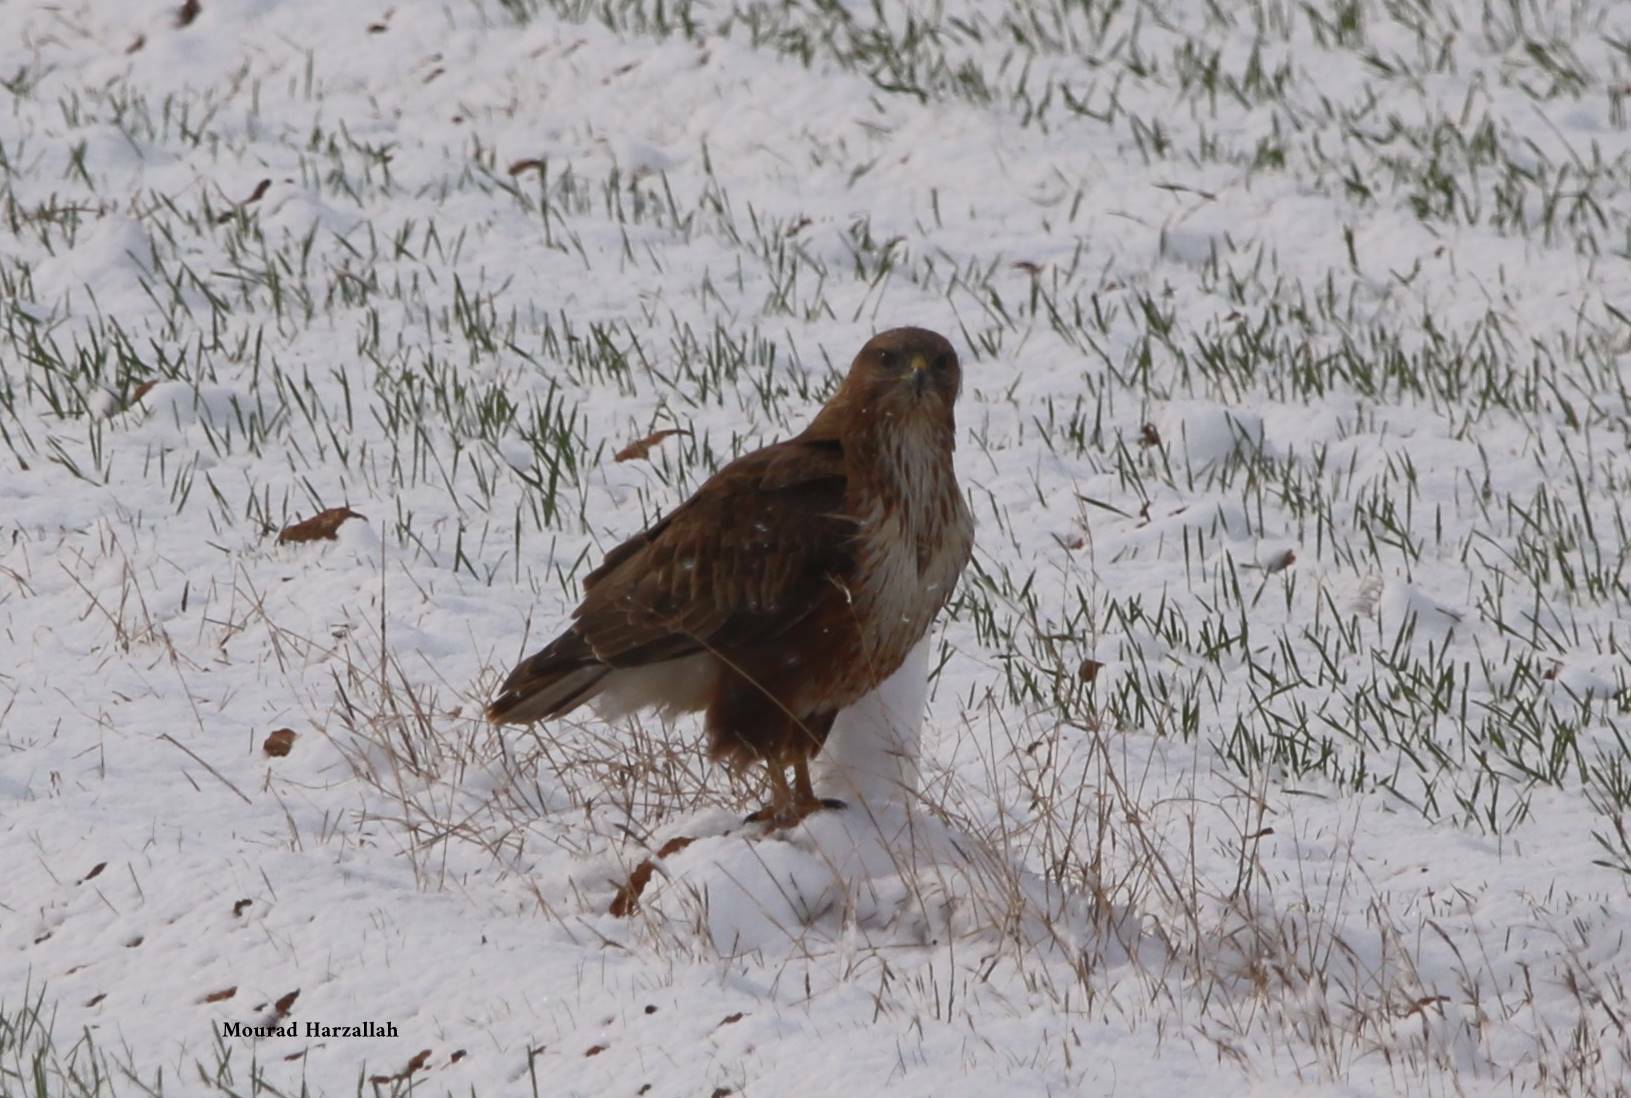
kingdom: Animalia
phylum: Chordata
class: Aves
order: Accipitriformes
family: Accipitridae
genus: Buteo
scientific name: Buteo rufinus
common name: Long-legged buzzard
